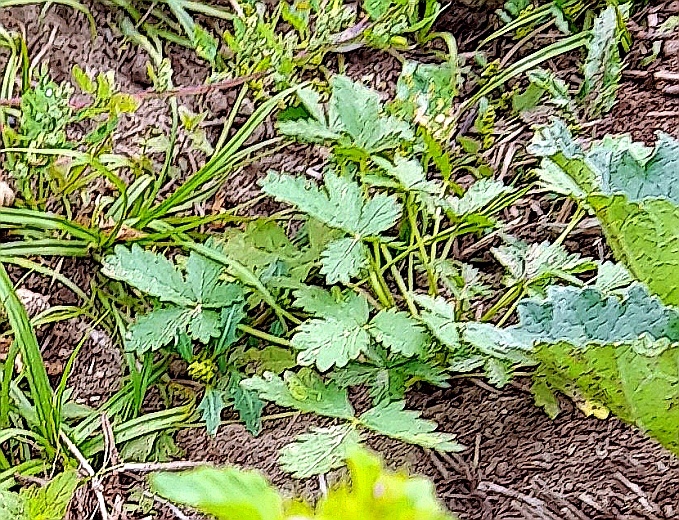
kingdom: Plantae
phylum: Tracheophyta
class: Magnoliopsida
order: Rosales
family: Rosaceae
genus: Potentilla
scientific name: Potentilla intermedia
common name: Downy cinquefoil
